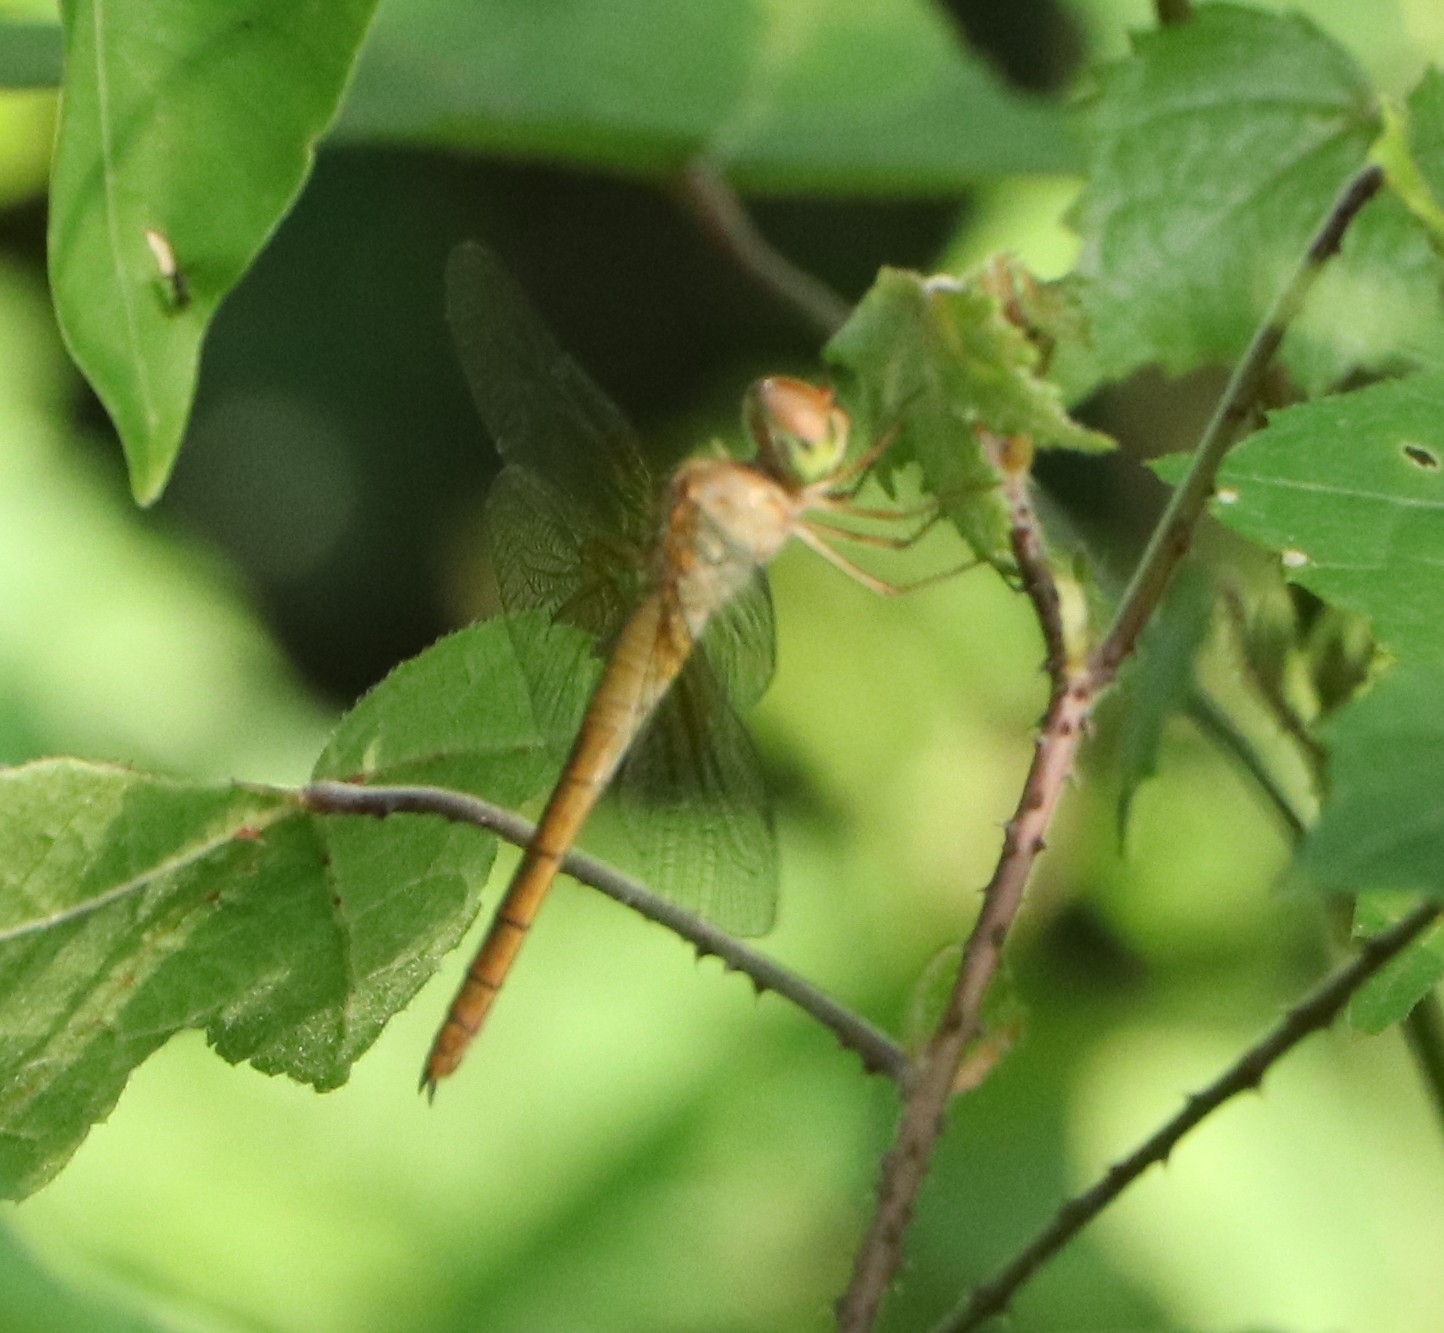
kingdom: Animalia
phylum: Arthropoda
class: Insecta
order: Odonata
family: Libellulidae
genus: Tholymis
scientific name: Tholymis tillarga
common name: Coral-tailed cloud wing
